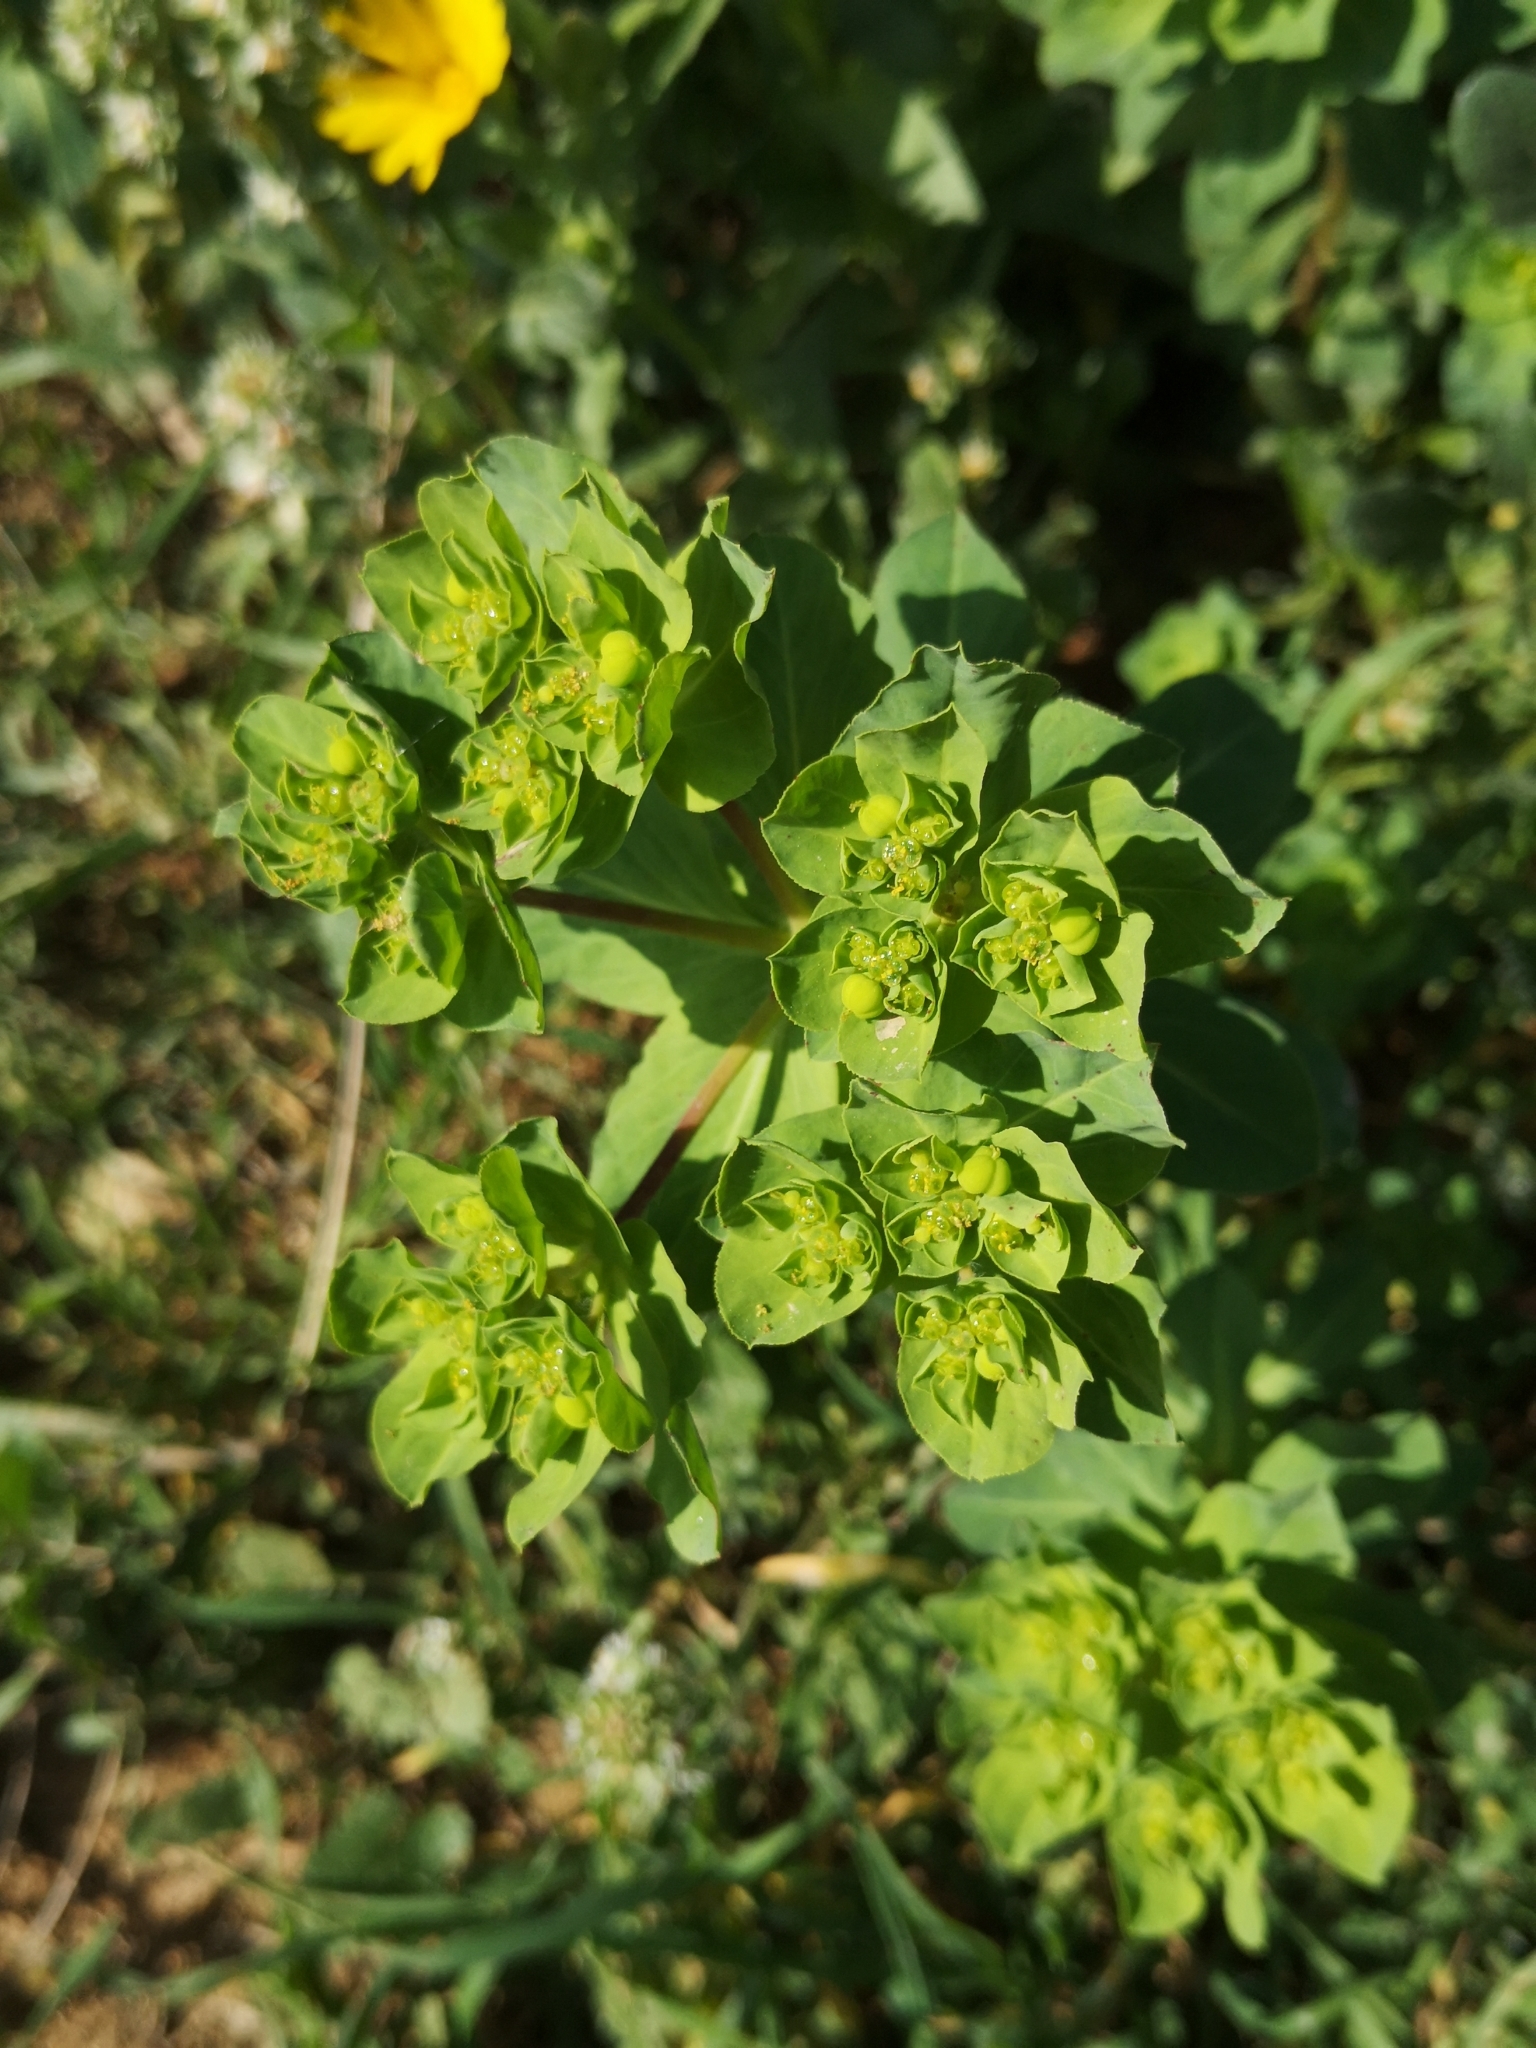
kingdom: Plantae
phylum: Tracheophyta
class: Magnoliopsida
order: Malpighiales
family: Euphorbiaceae
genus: Euphorbia
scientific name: Euphorbia helioscopia
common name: Sun spurge
